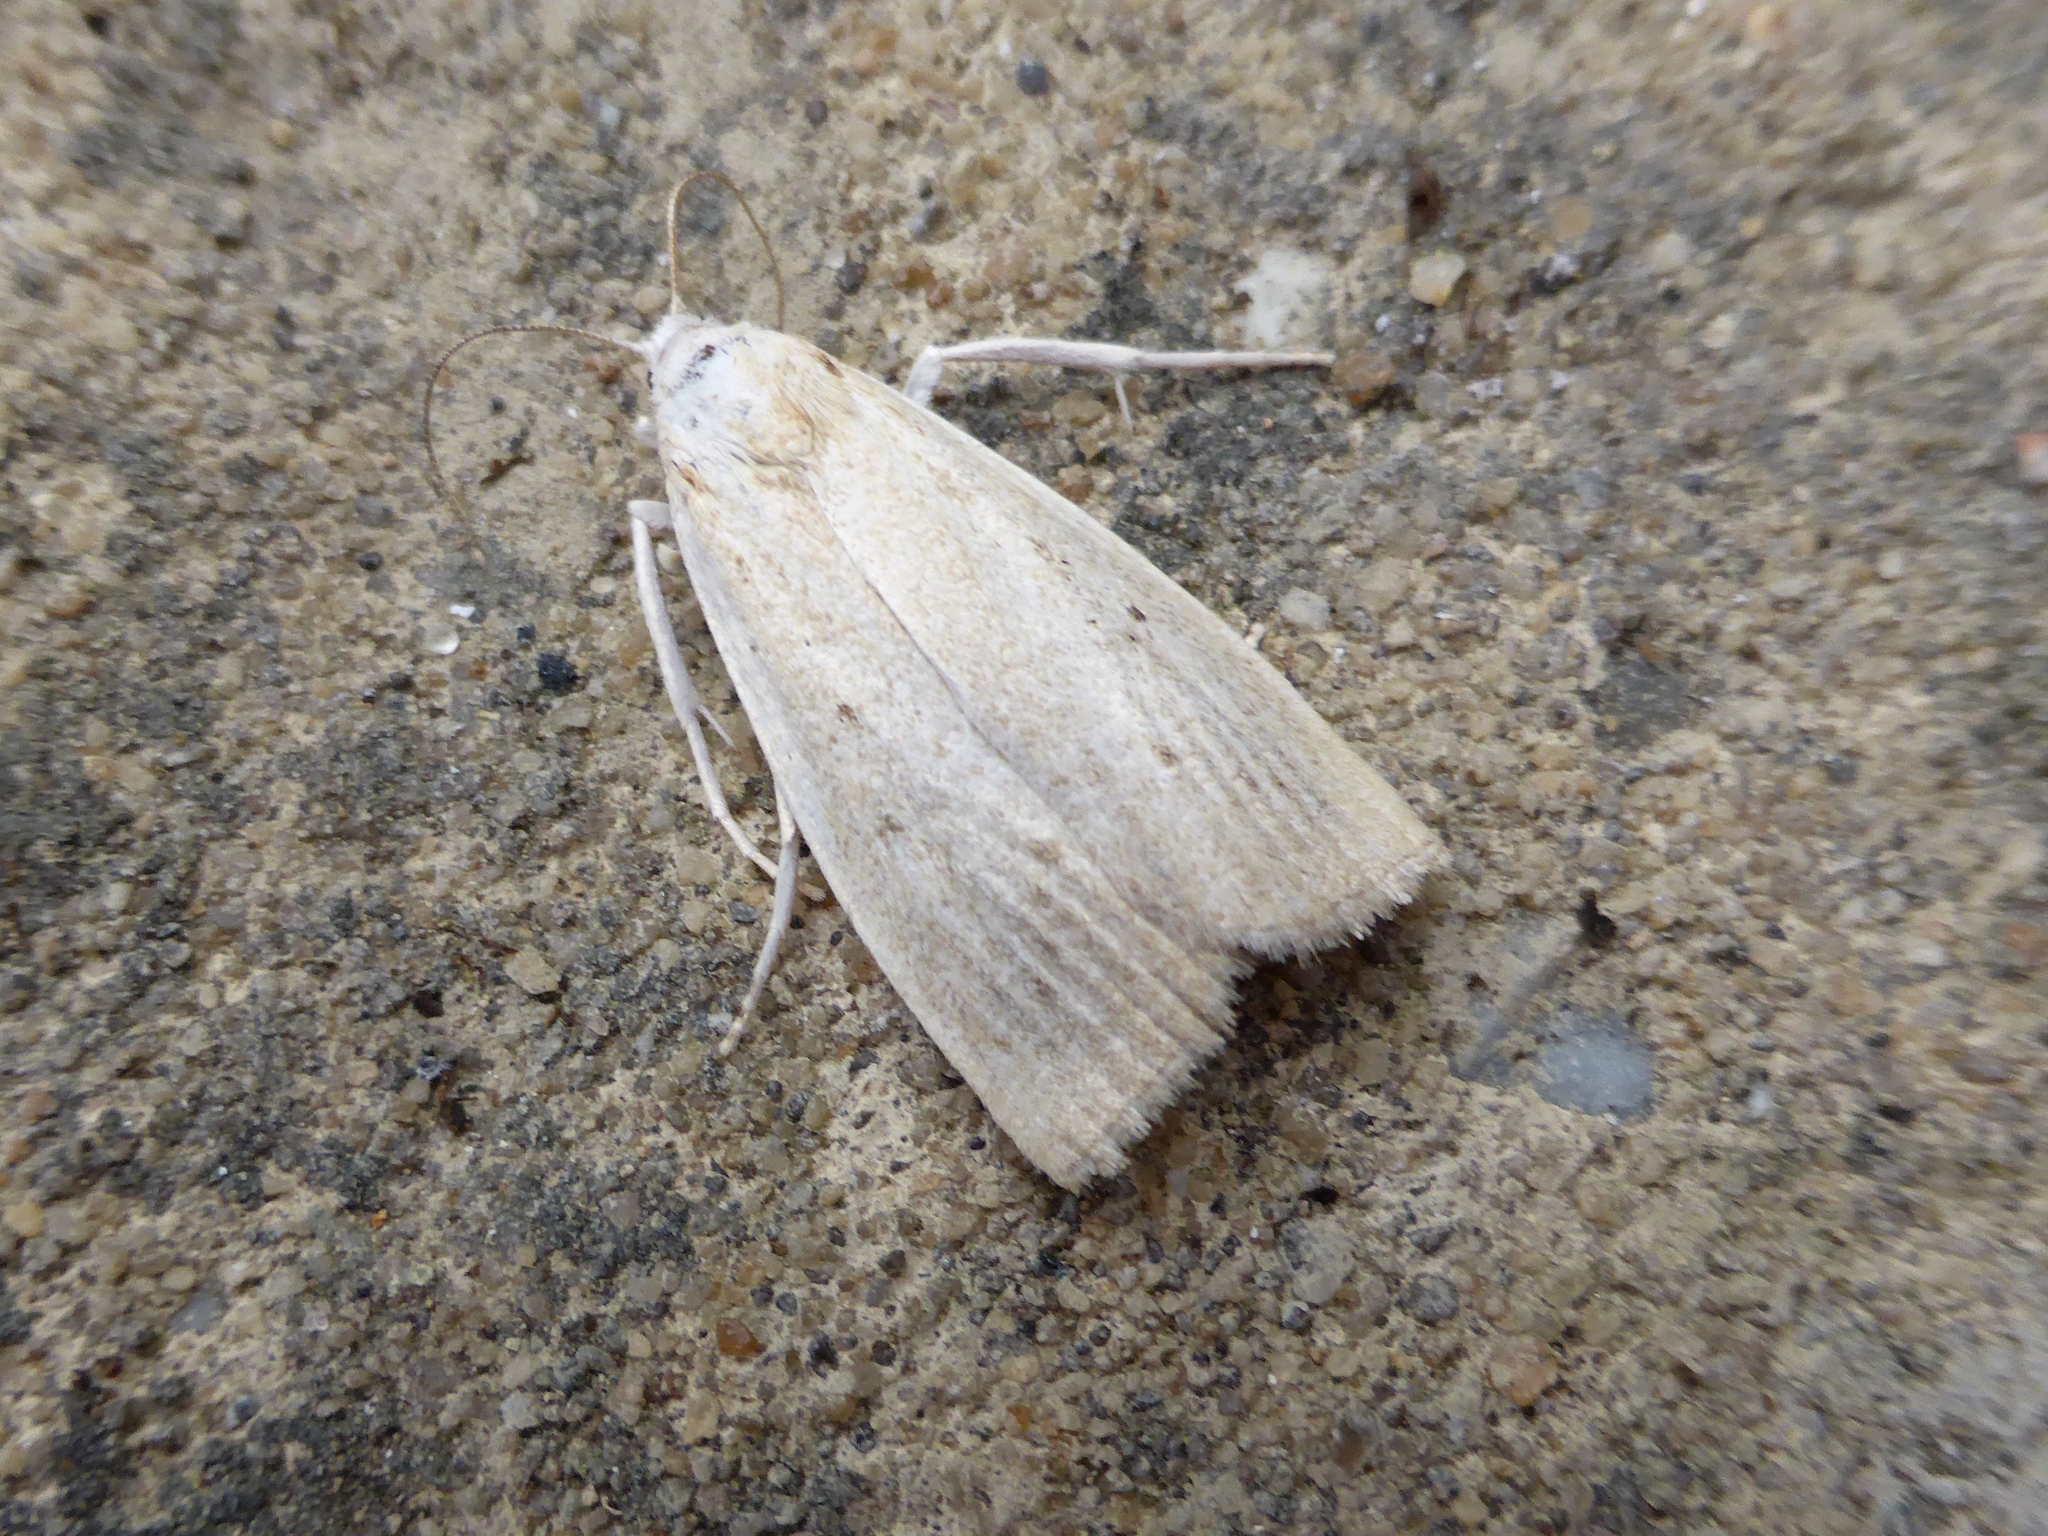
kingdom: Animalia
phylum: Arthropoda
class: Insecta
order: Lepidoptera
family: Crambidae
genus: Calamotropha
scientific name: Calamotropha paludella
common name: Bulrush veneer
